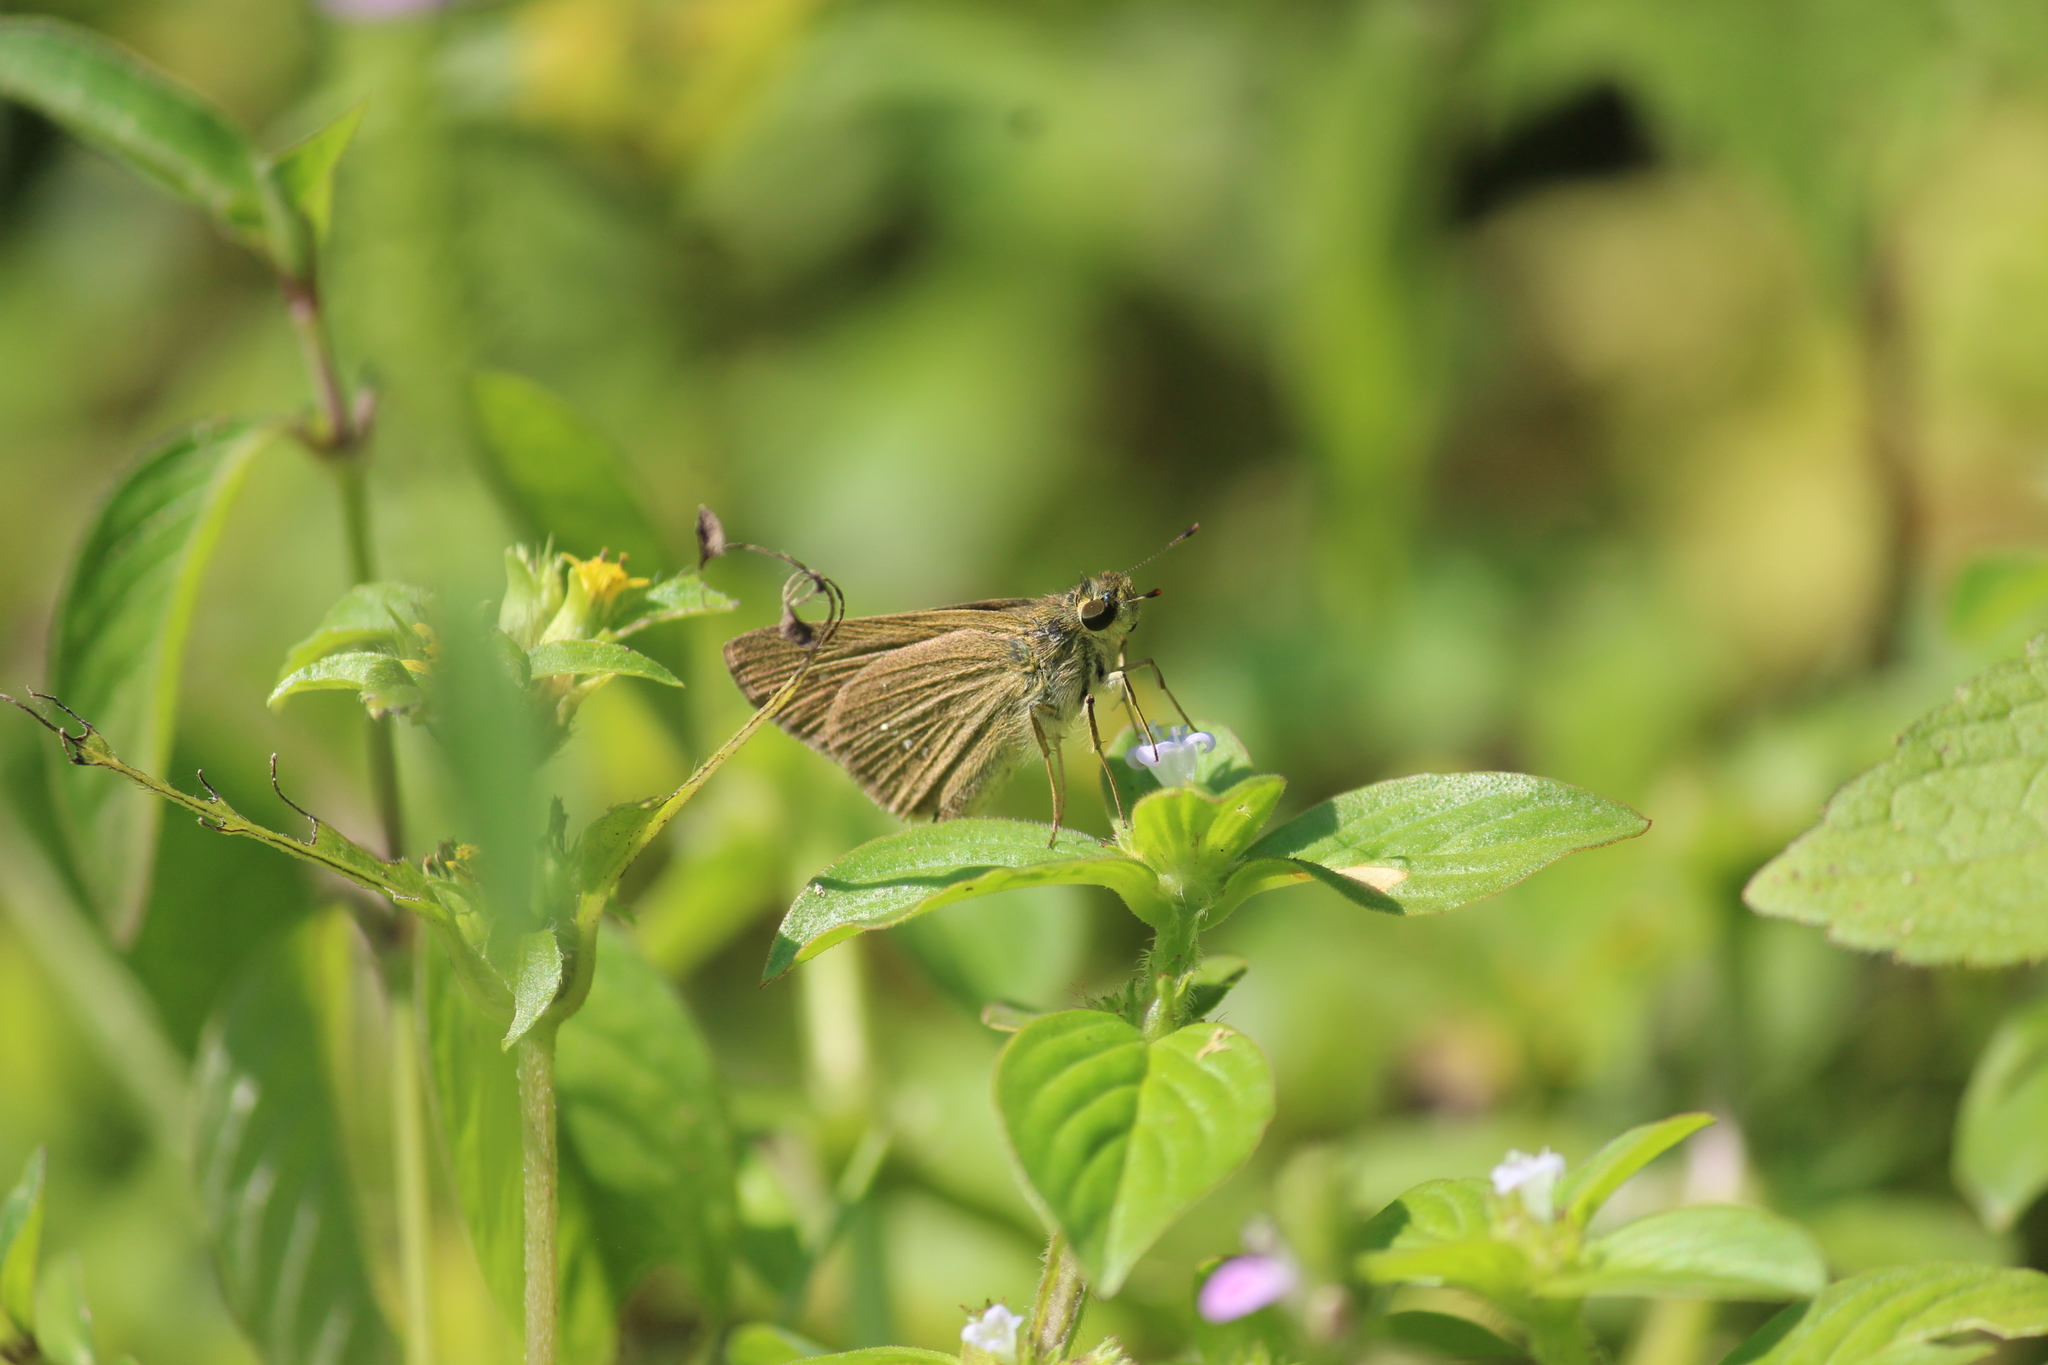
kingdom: Animalia
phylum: Arthropoda
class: Insecta
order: Lepidoptera
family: Hesperiidae
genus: Parnara
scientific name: Parnara naso
